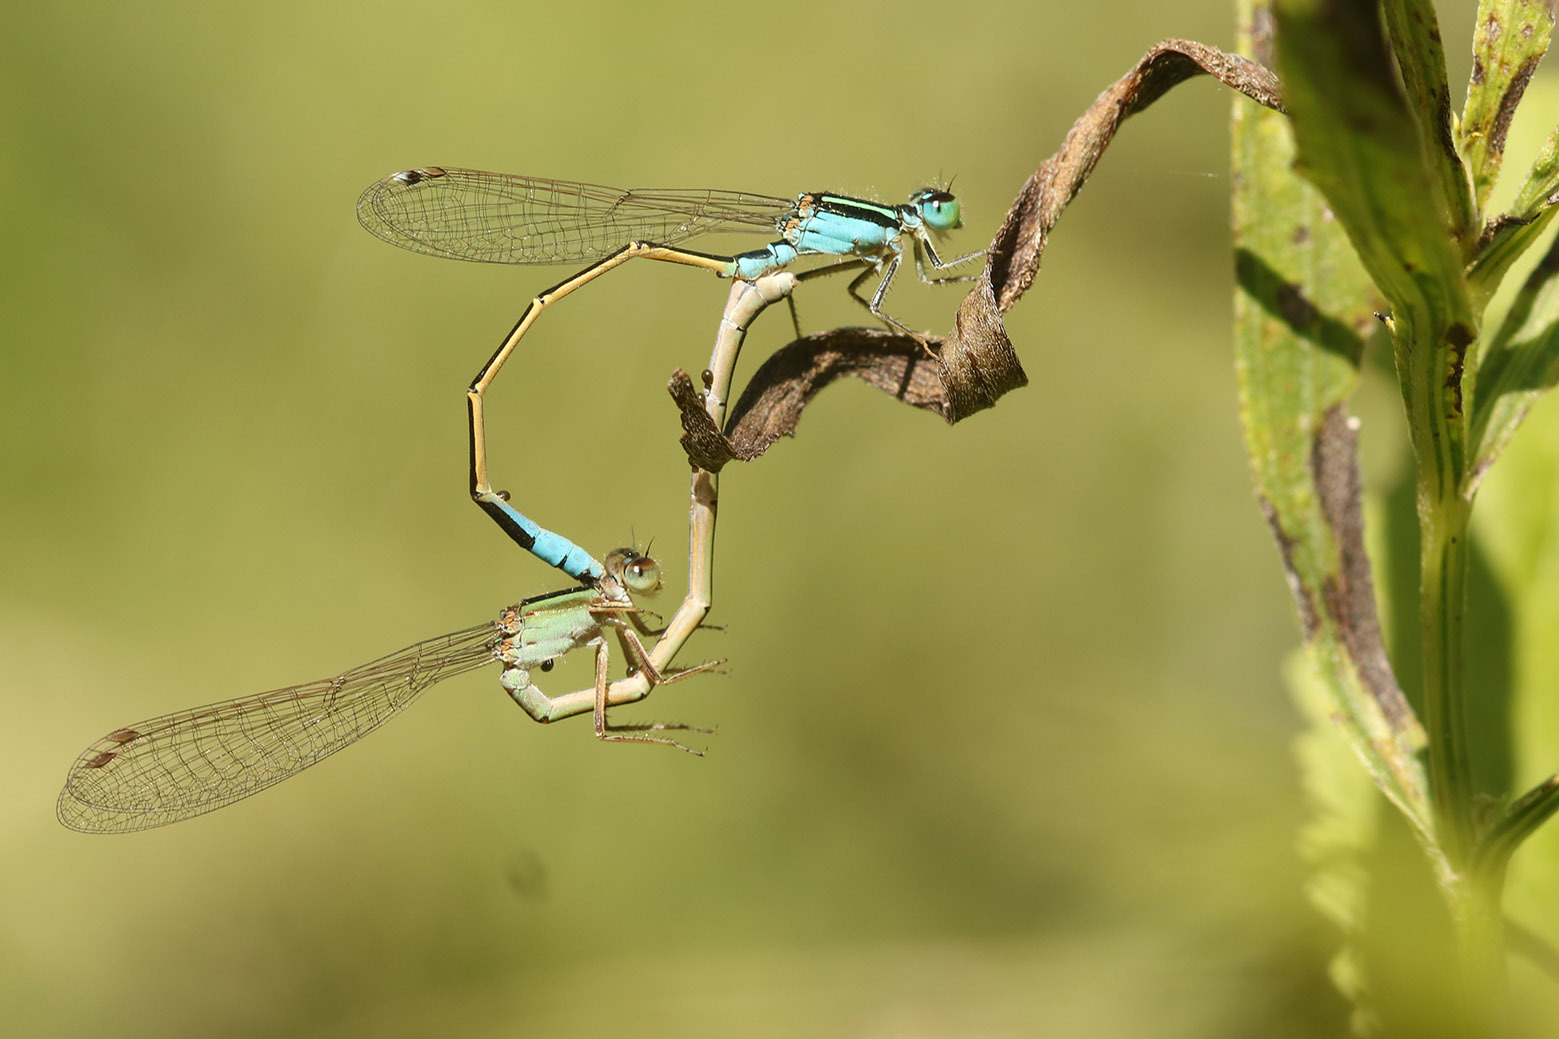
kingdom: Animalia
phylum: Arthropoda
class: Insecta
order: Odonata
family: Coenagrionidae
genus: Ischnura
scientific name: Ischnura fluviatilis
